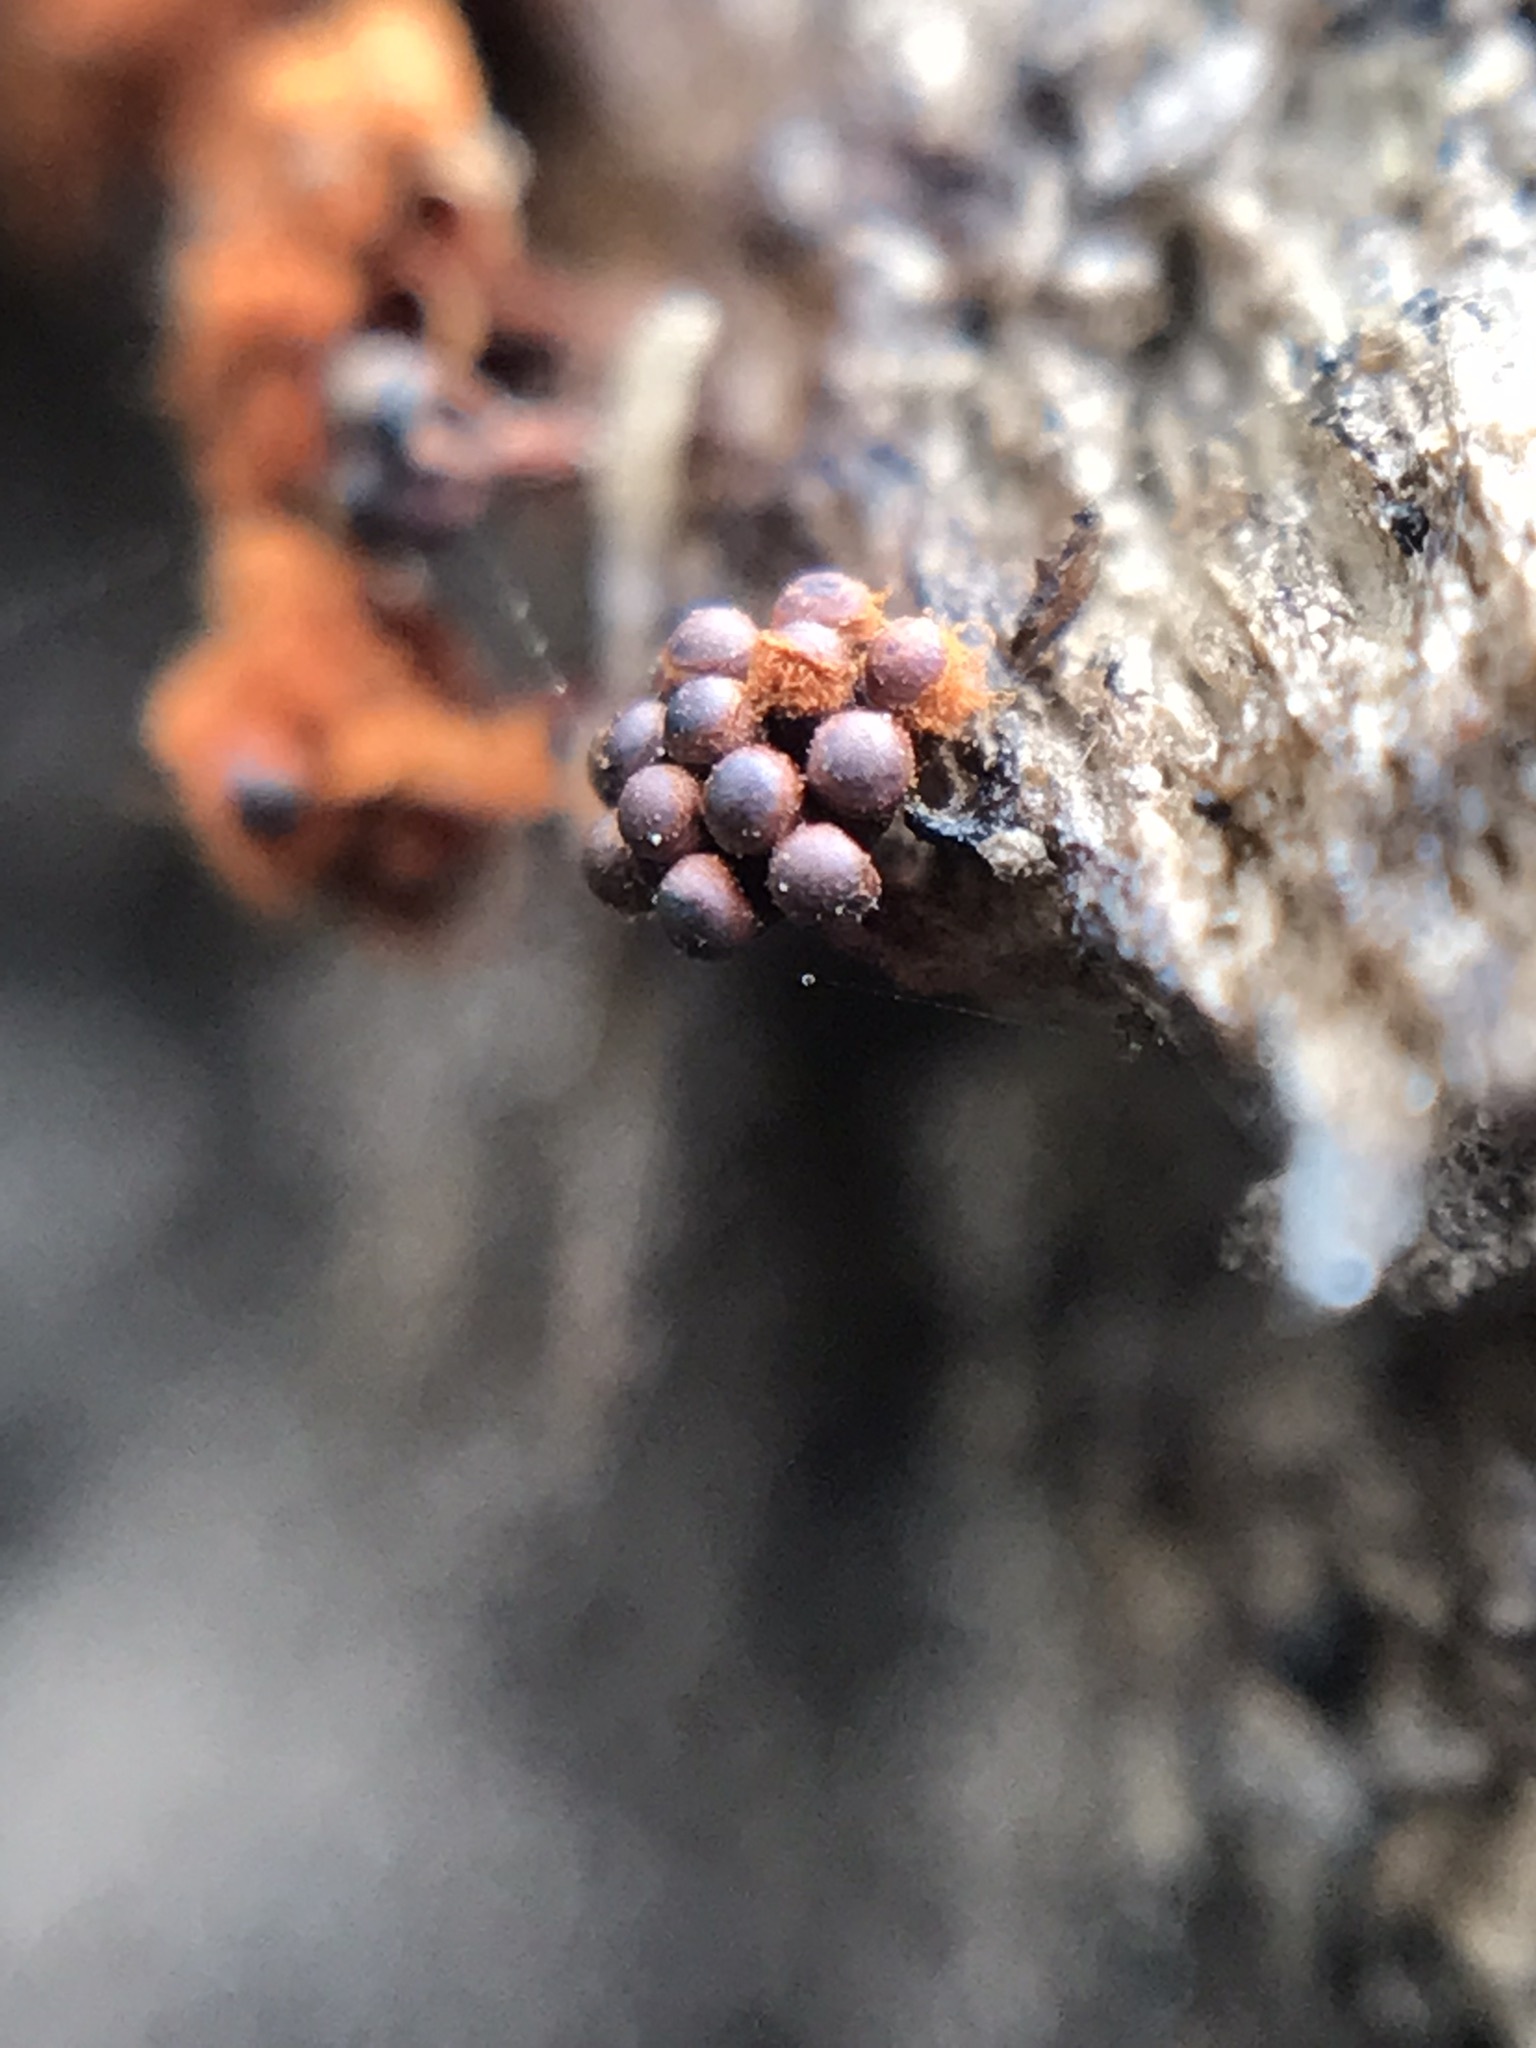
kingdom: Protozoa
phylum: Mycetozoa
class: Myxomycetes
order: Trichiales
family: Trichiaceae
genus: Metatrichia
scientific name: Metatrichia vesparia
